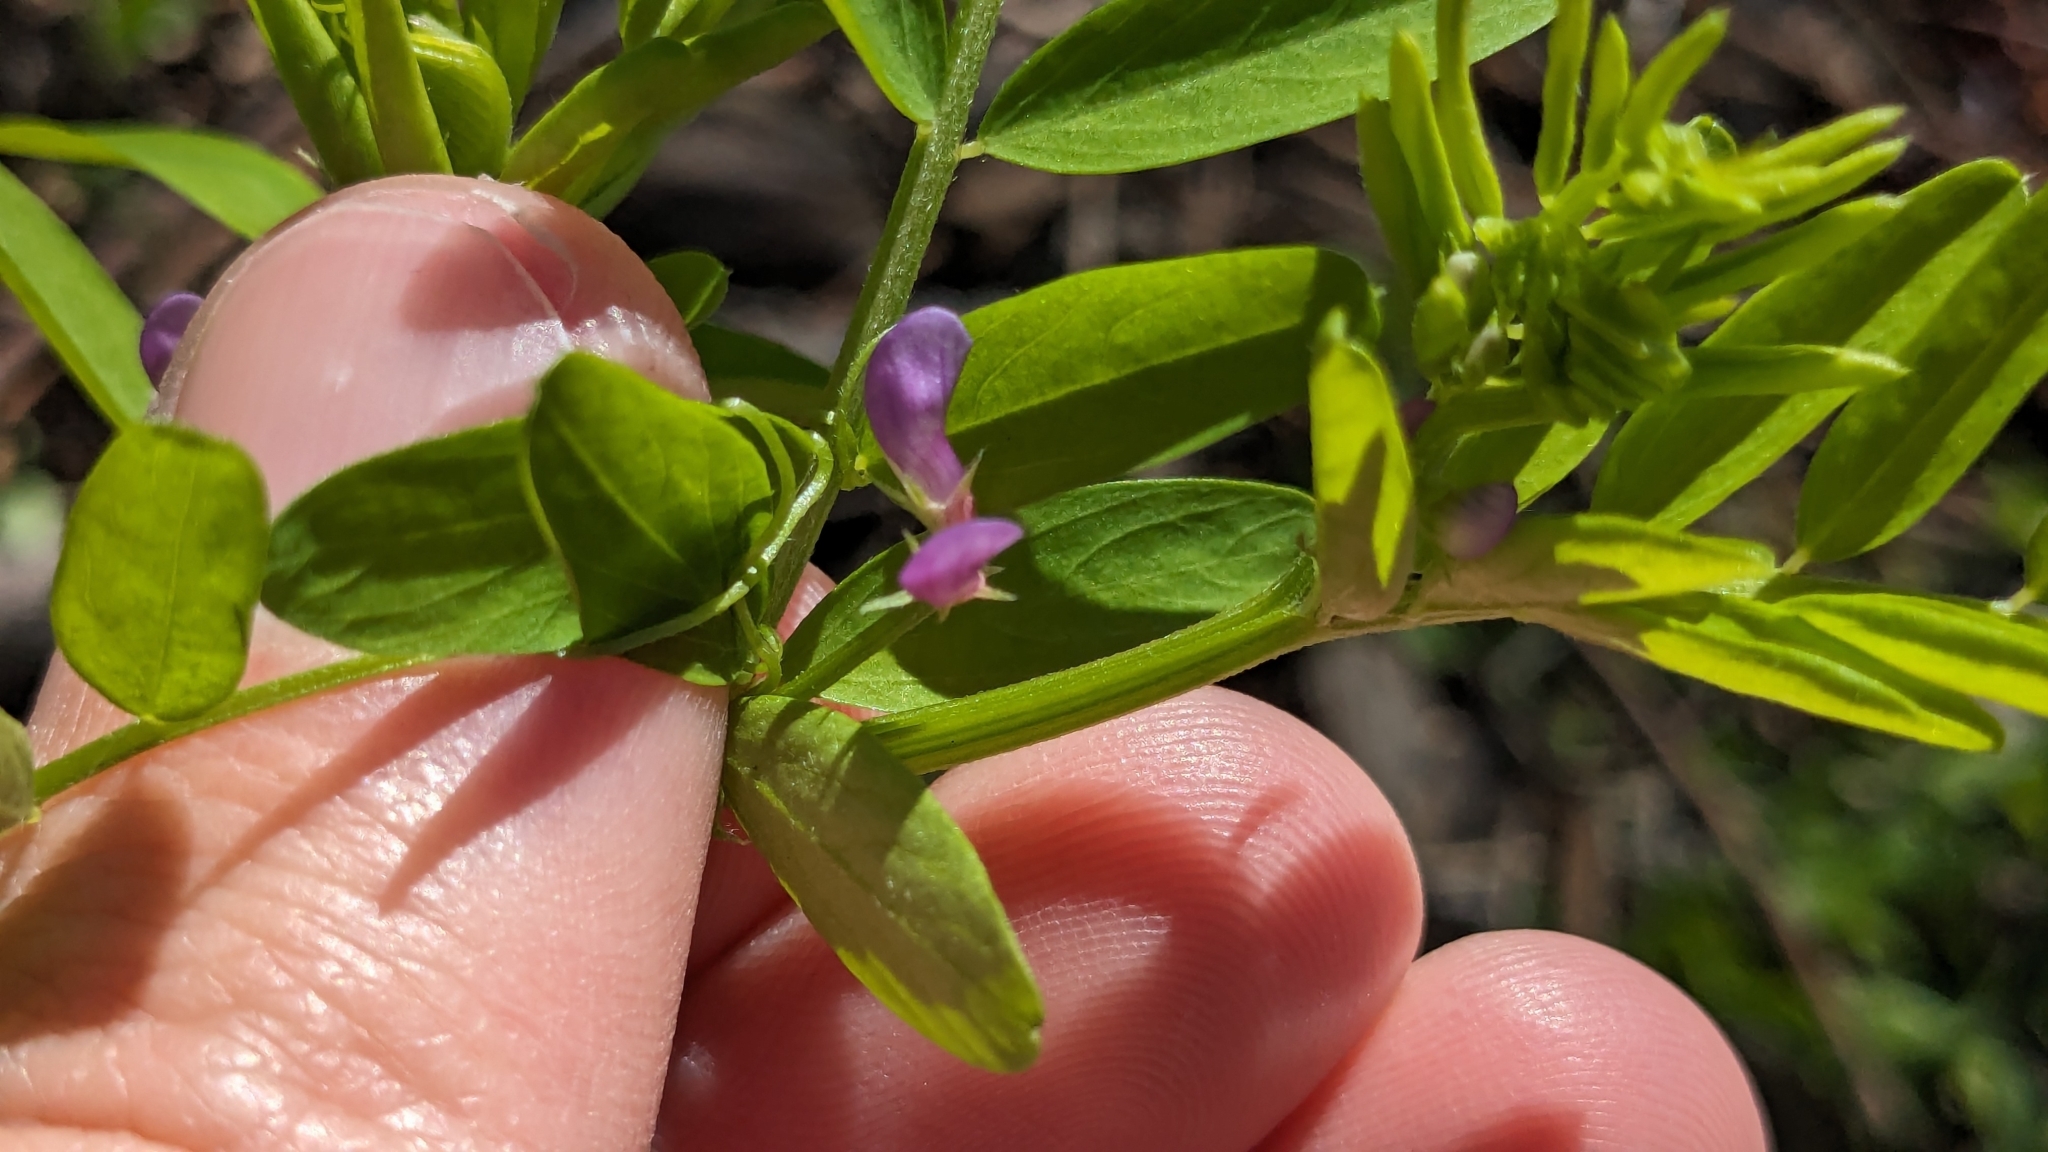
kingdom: Plantae
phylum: Tracheophyta
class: Magnoliopsida
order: Fabales
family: Fabaceae
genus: Vicia
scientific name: Vicia ludoviciana
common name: Louisiana vetch
